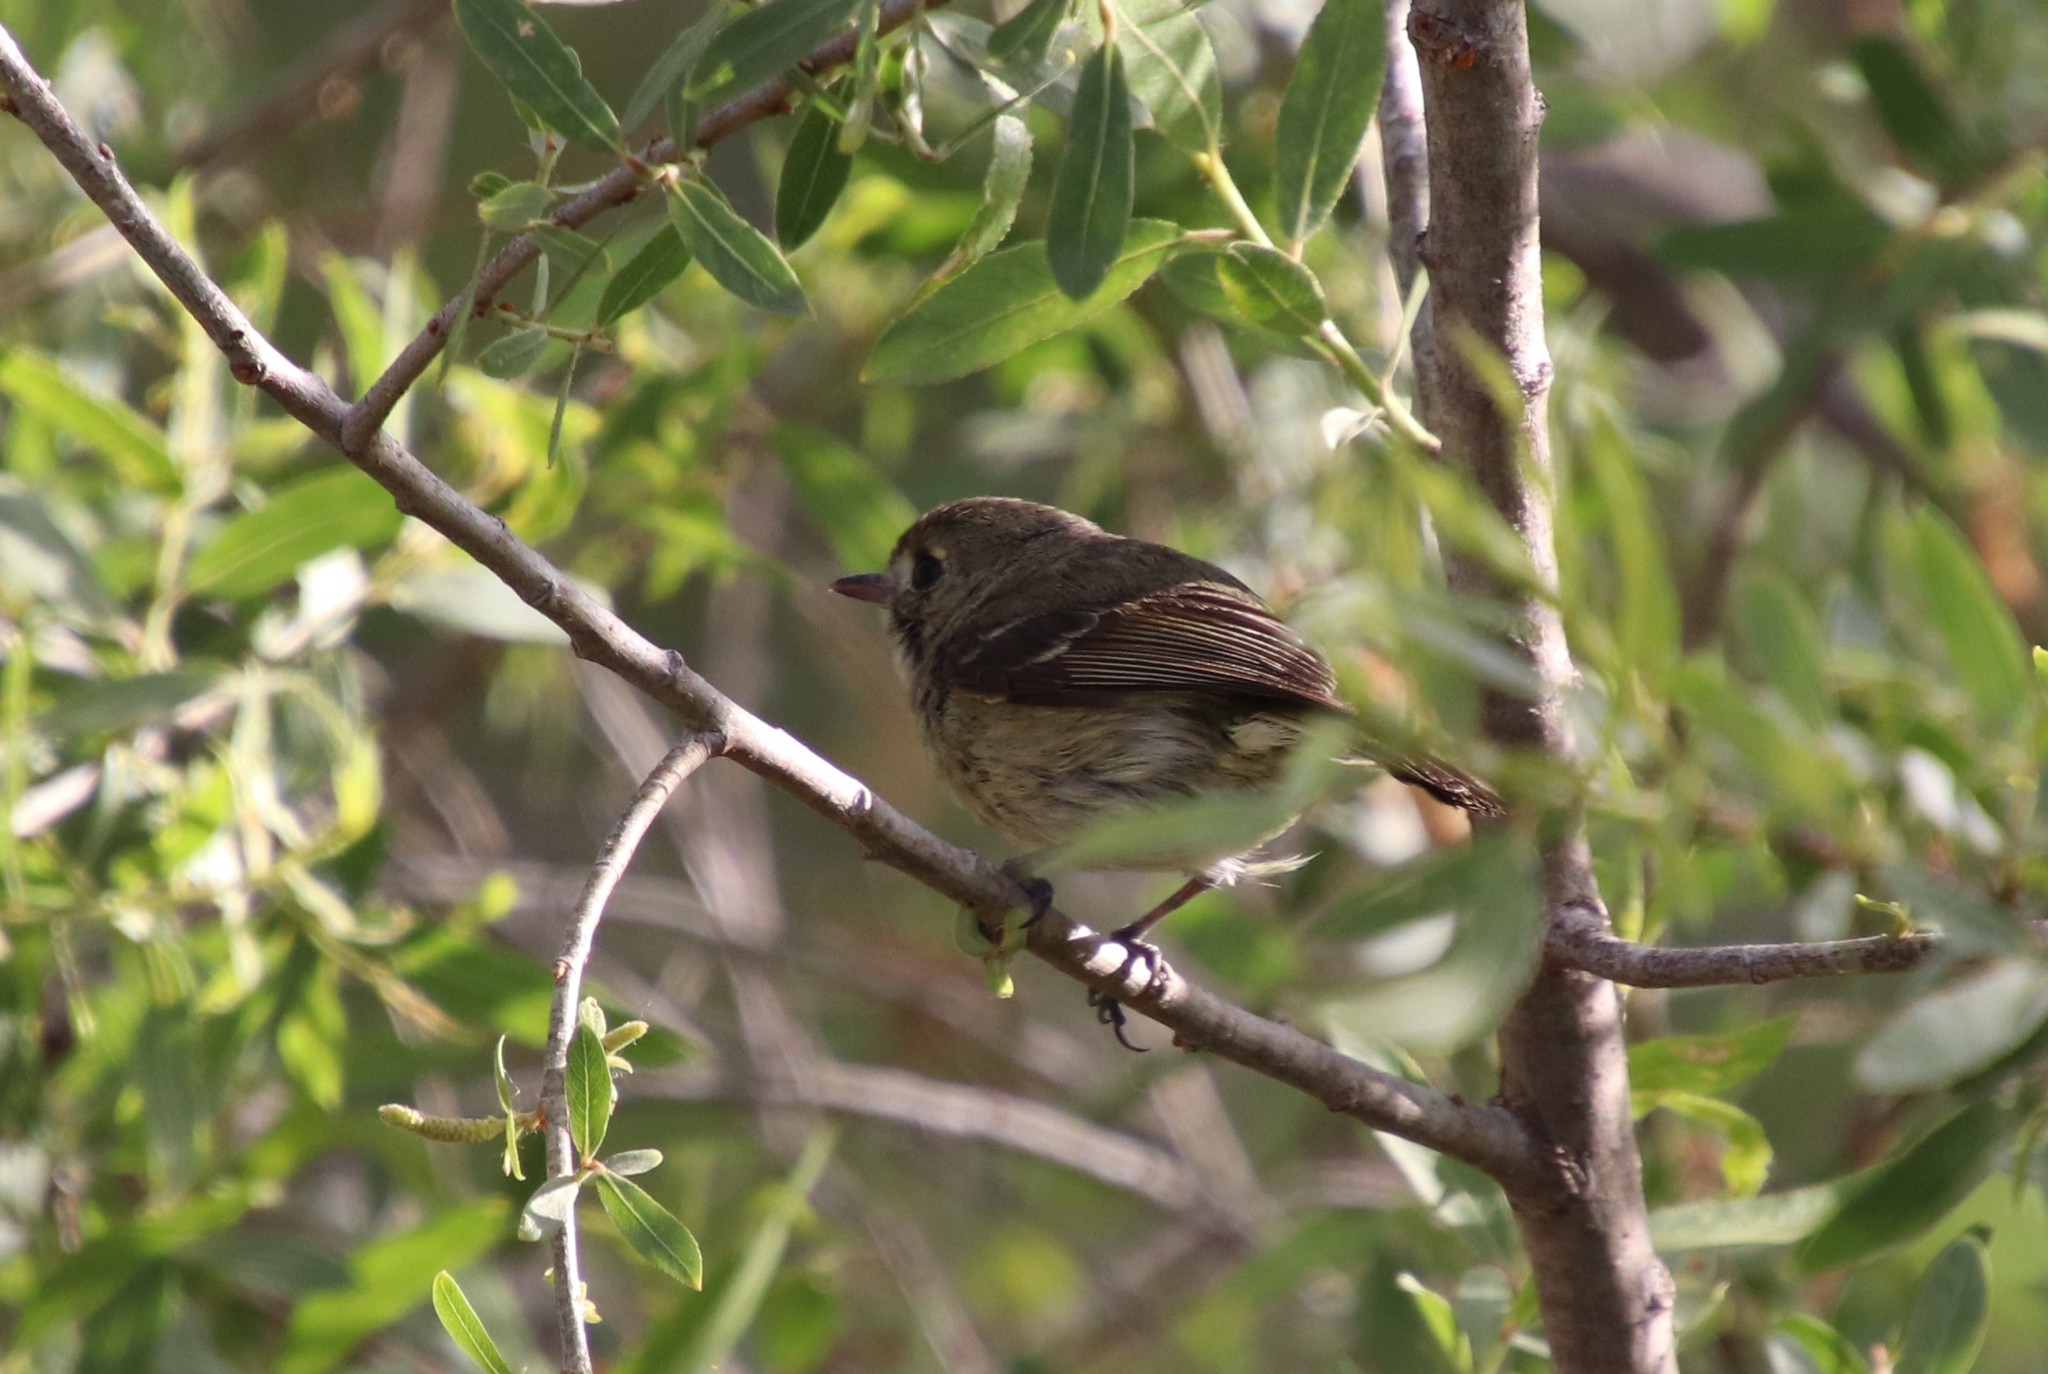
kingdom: Animalia
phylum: Chordata
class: Aves
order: Passeriformes
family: Vireonidae
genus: Vireo
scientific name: Vireo huttoni
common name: Hutton's vireo
